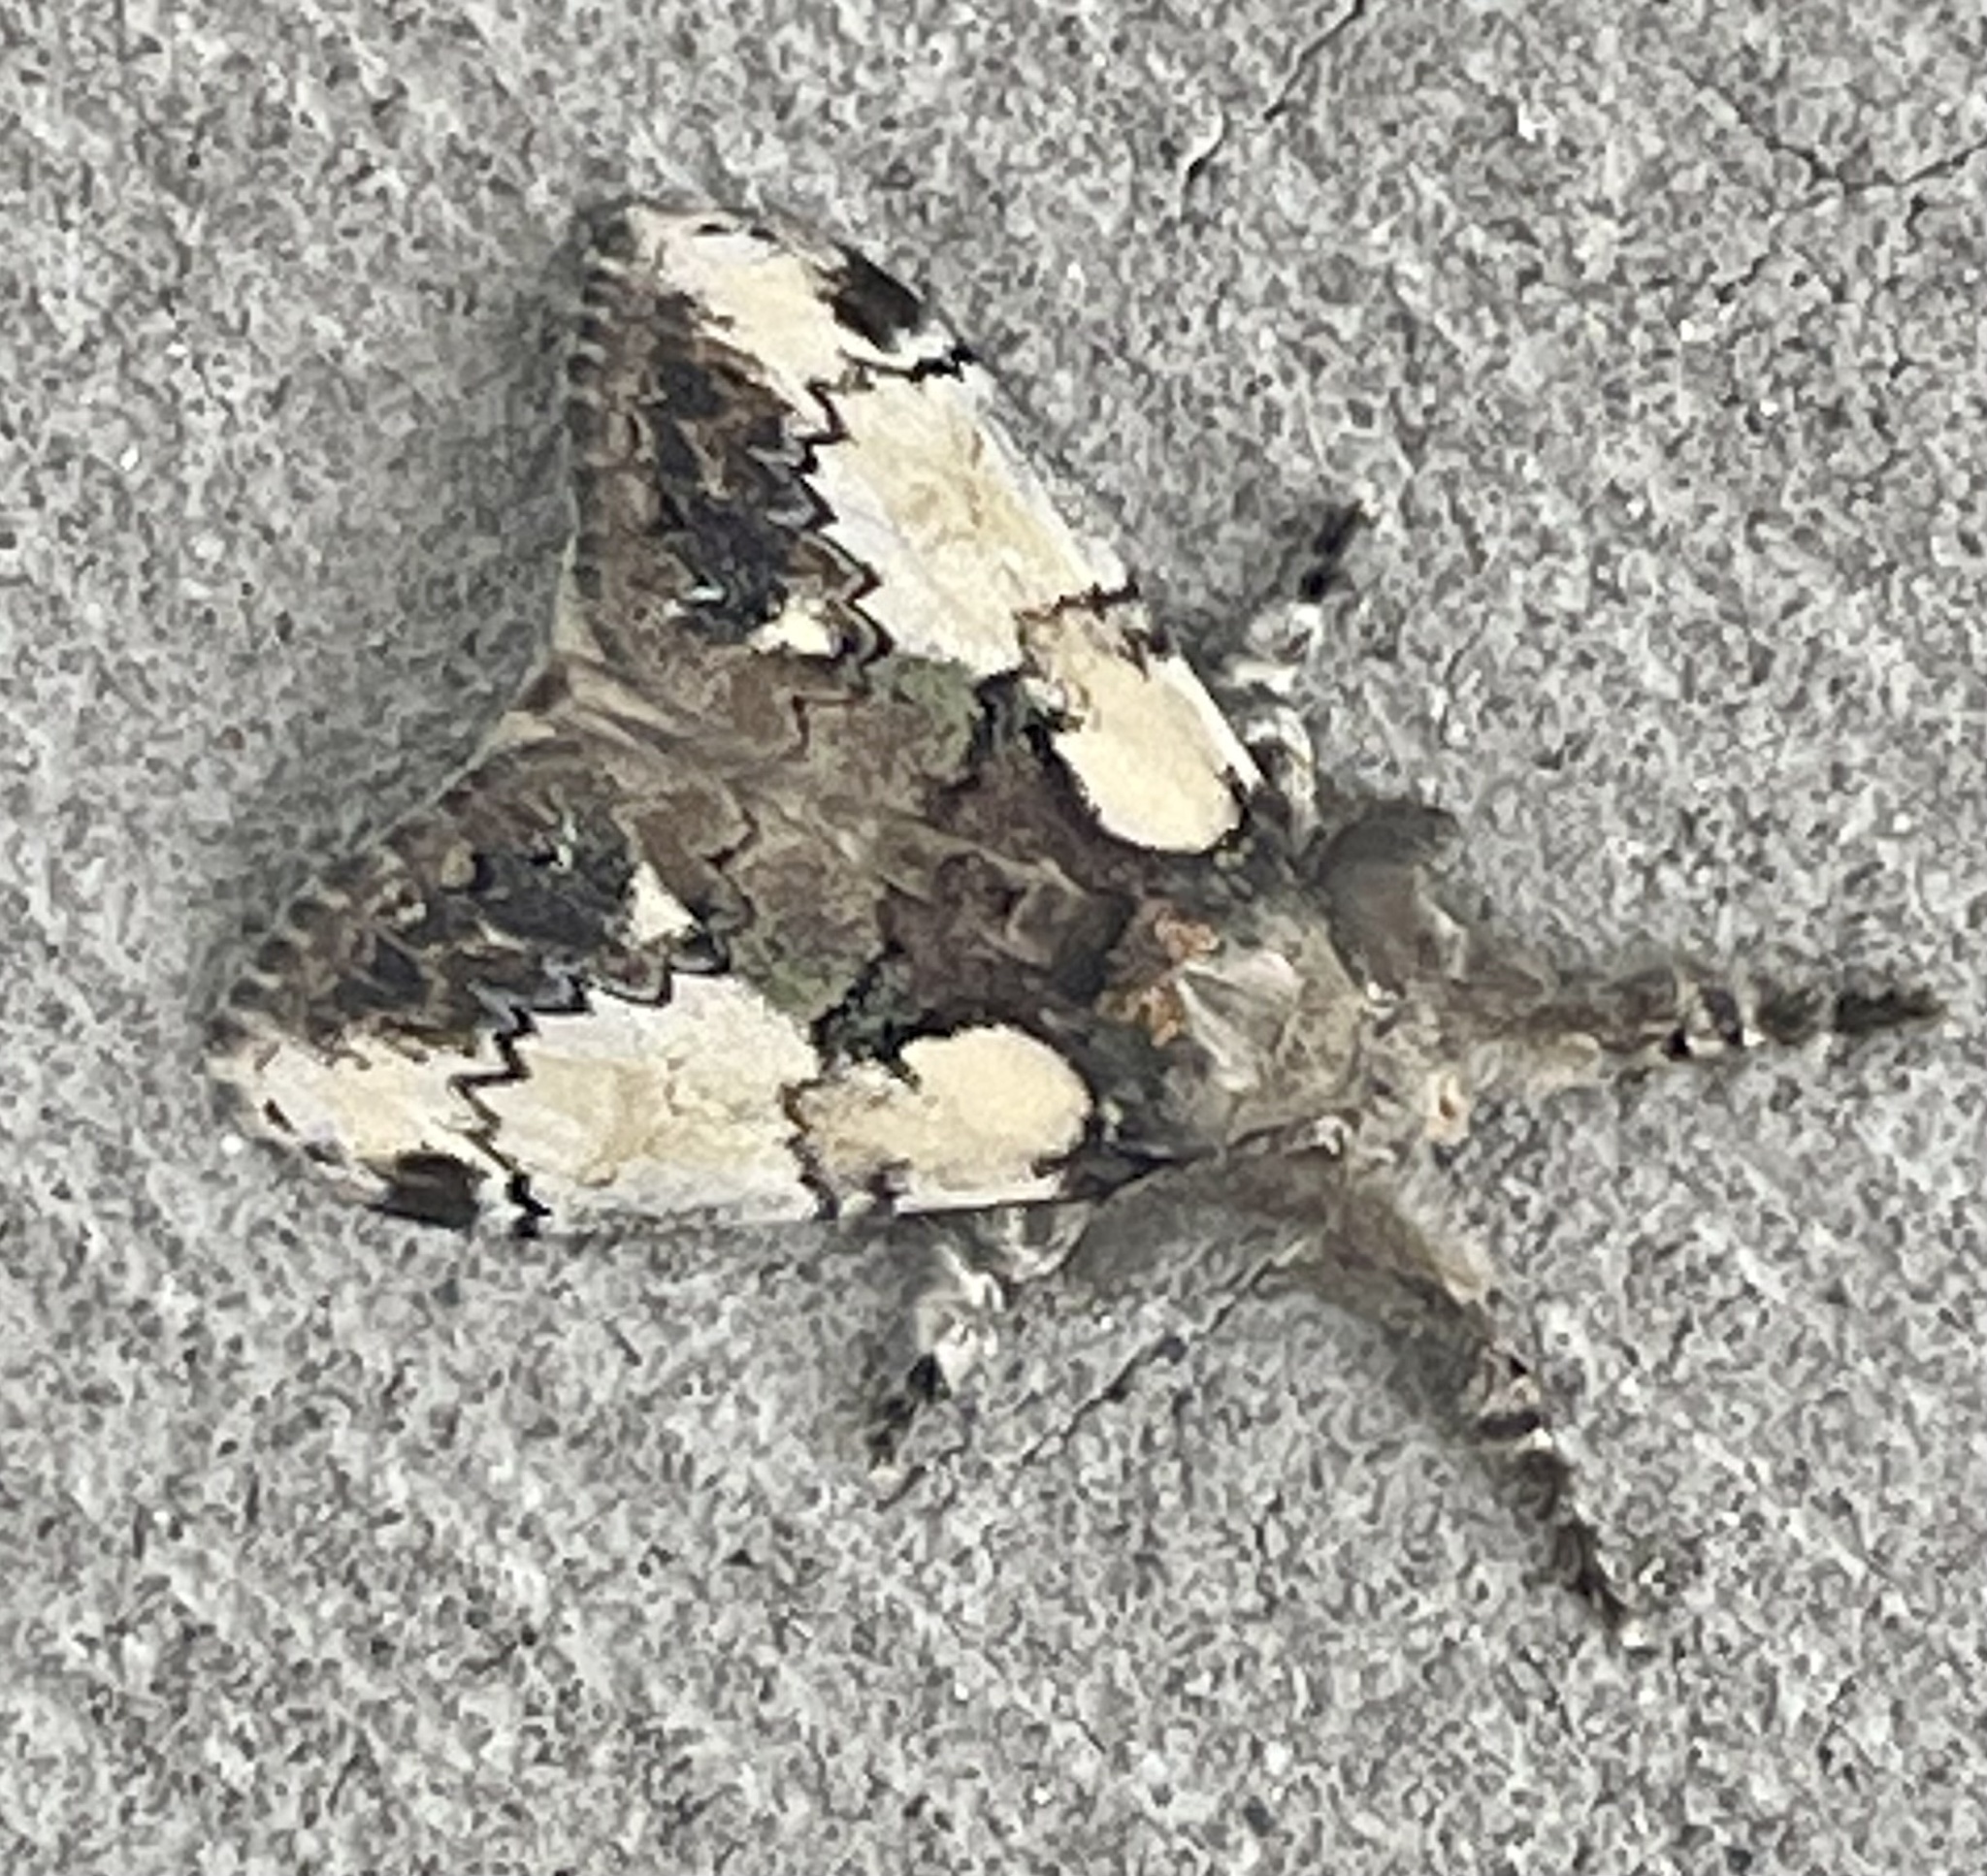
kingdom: Animalia
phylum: Arthropoda
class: Insecta
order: Lepidoptera
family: Erebidae
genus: Olene
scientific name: Olene mendosa
